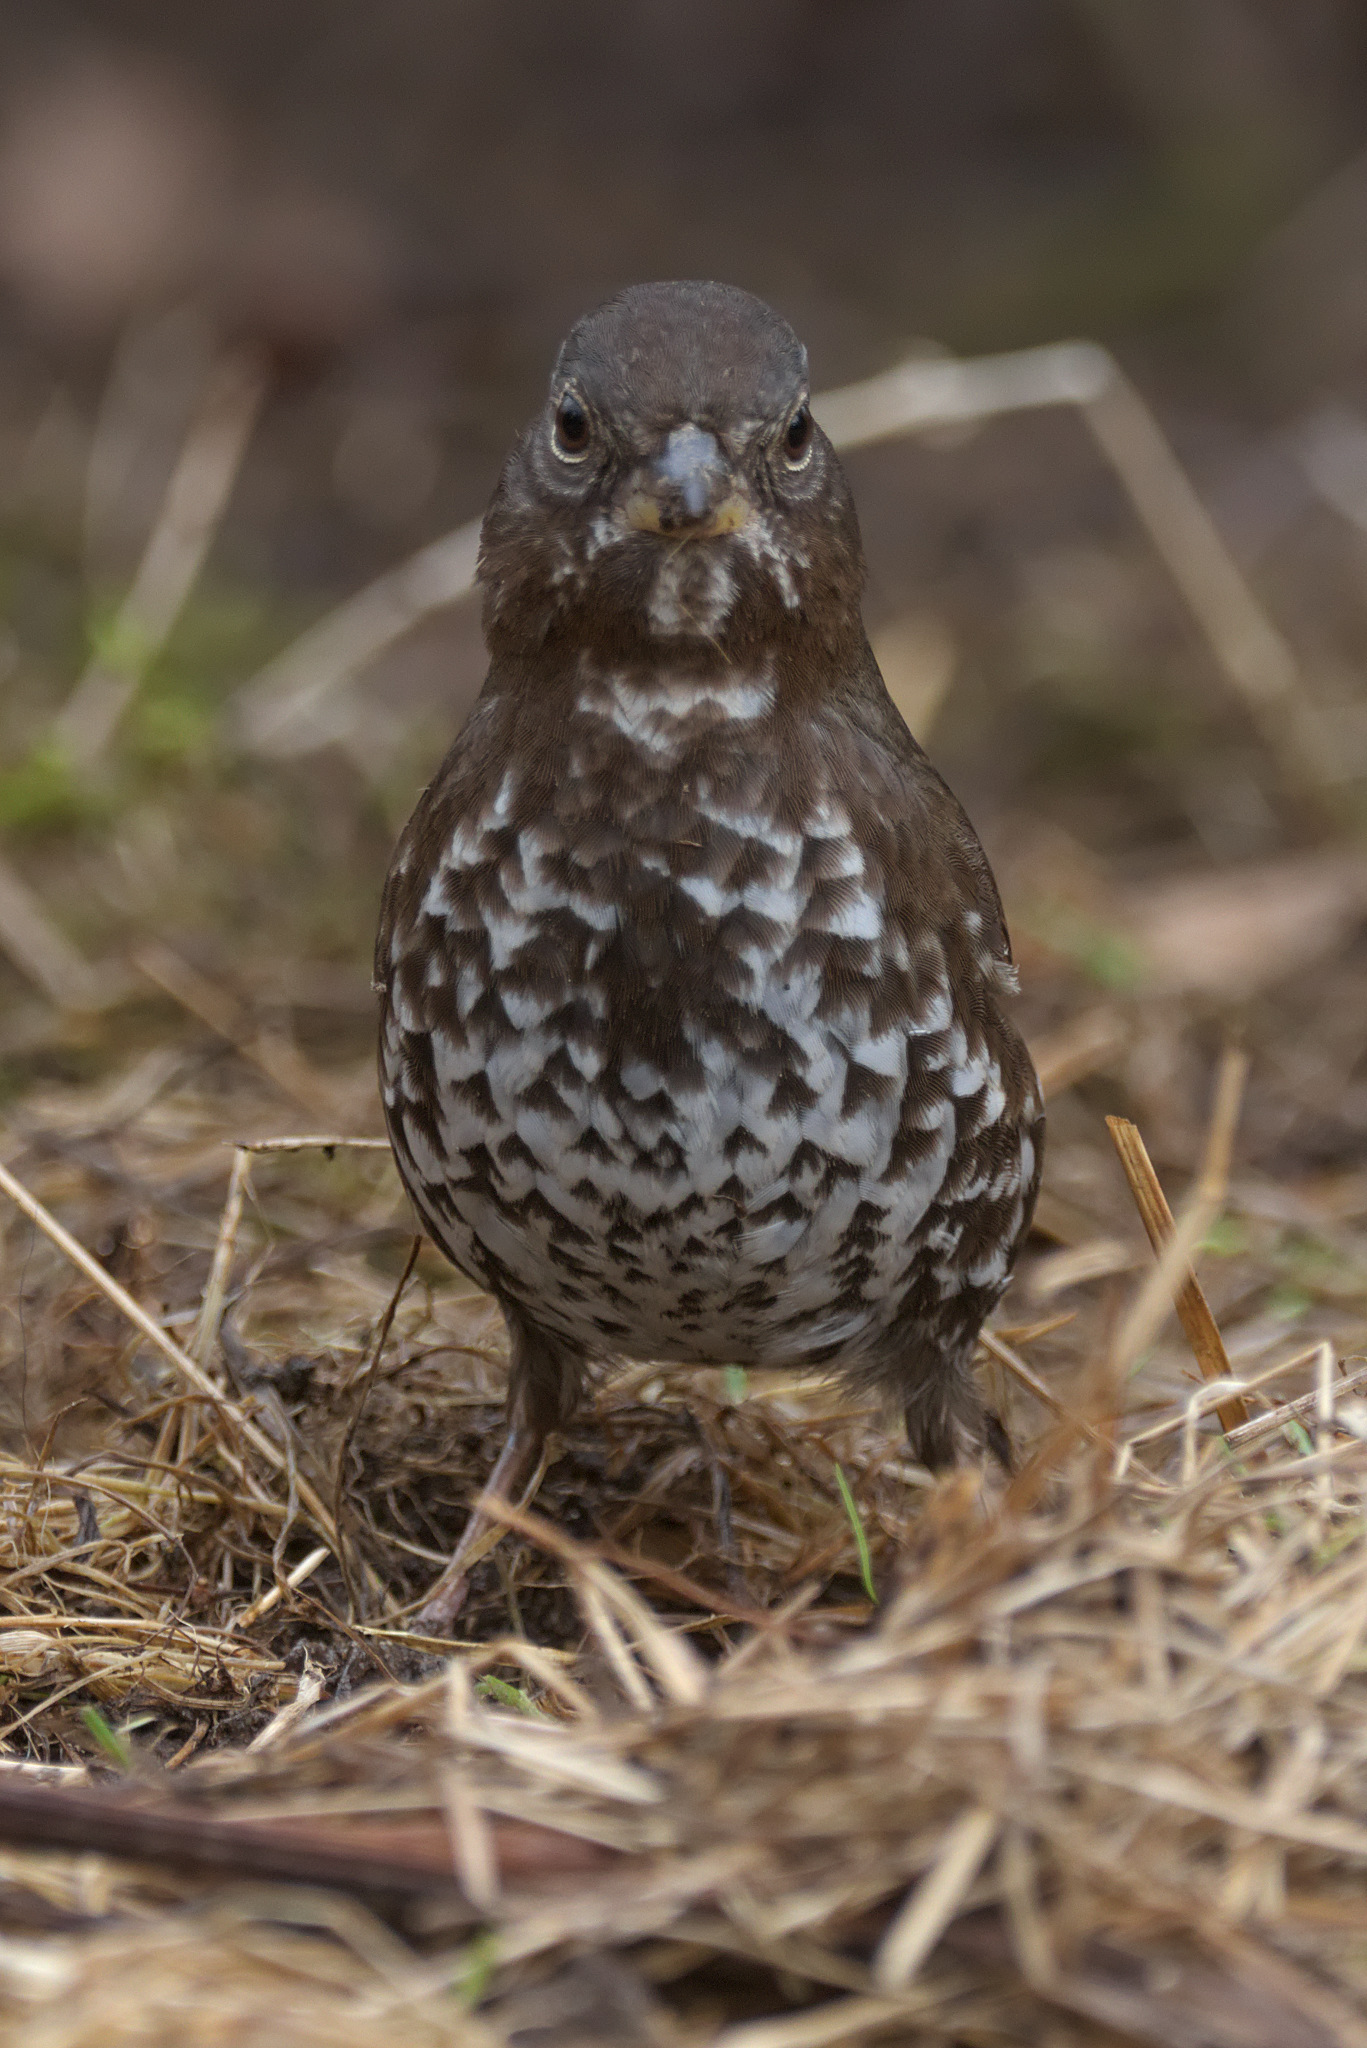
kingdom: Animalia
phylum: Chordata
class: Aves
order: Passeriformes
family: Passerellidae
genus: Passerella
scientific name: Passerella iliaca
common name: Fox sparrow
